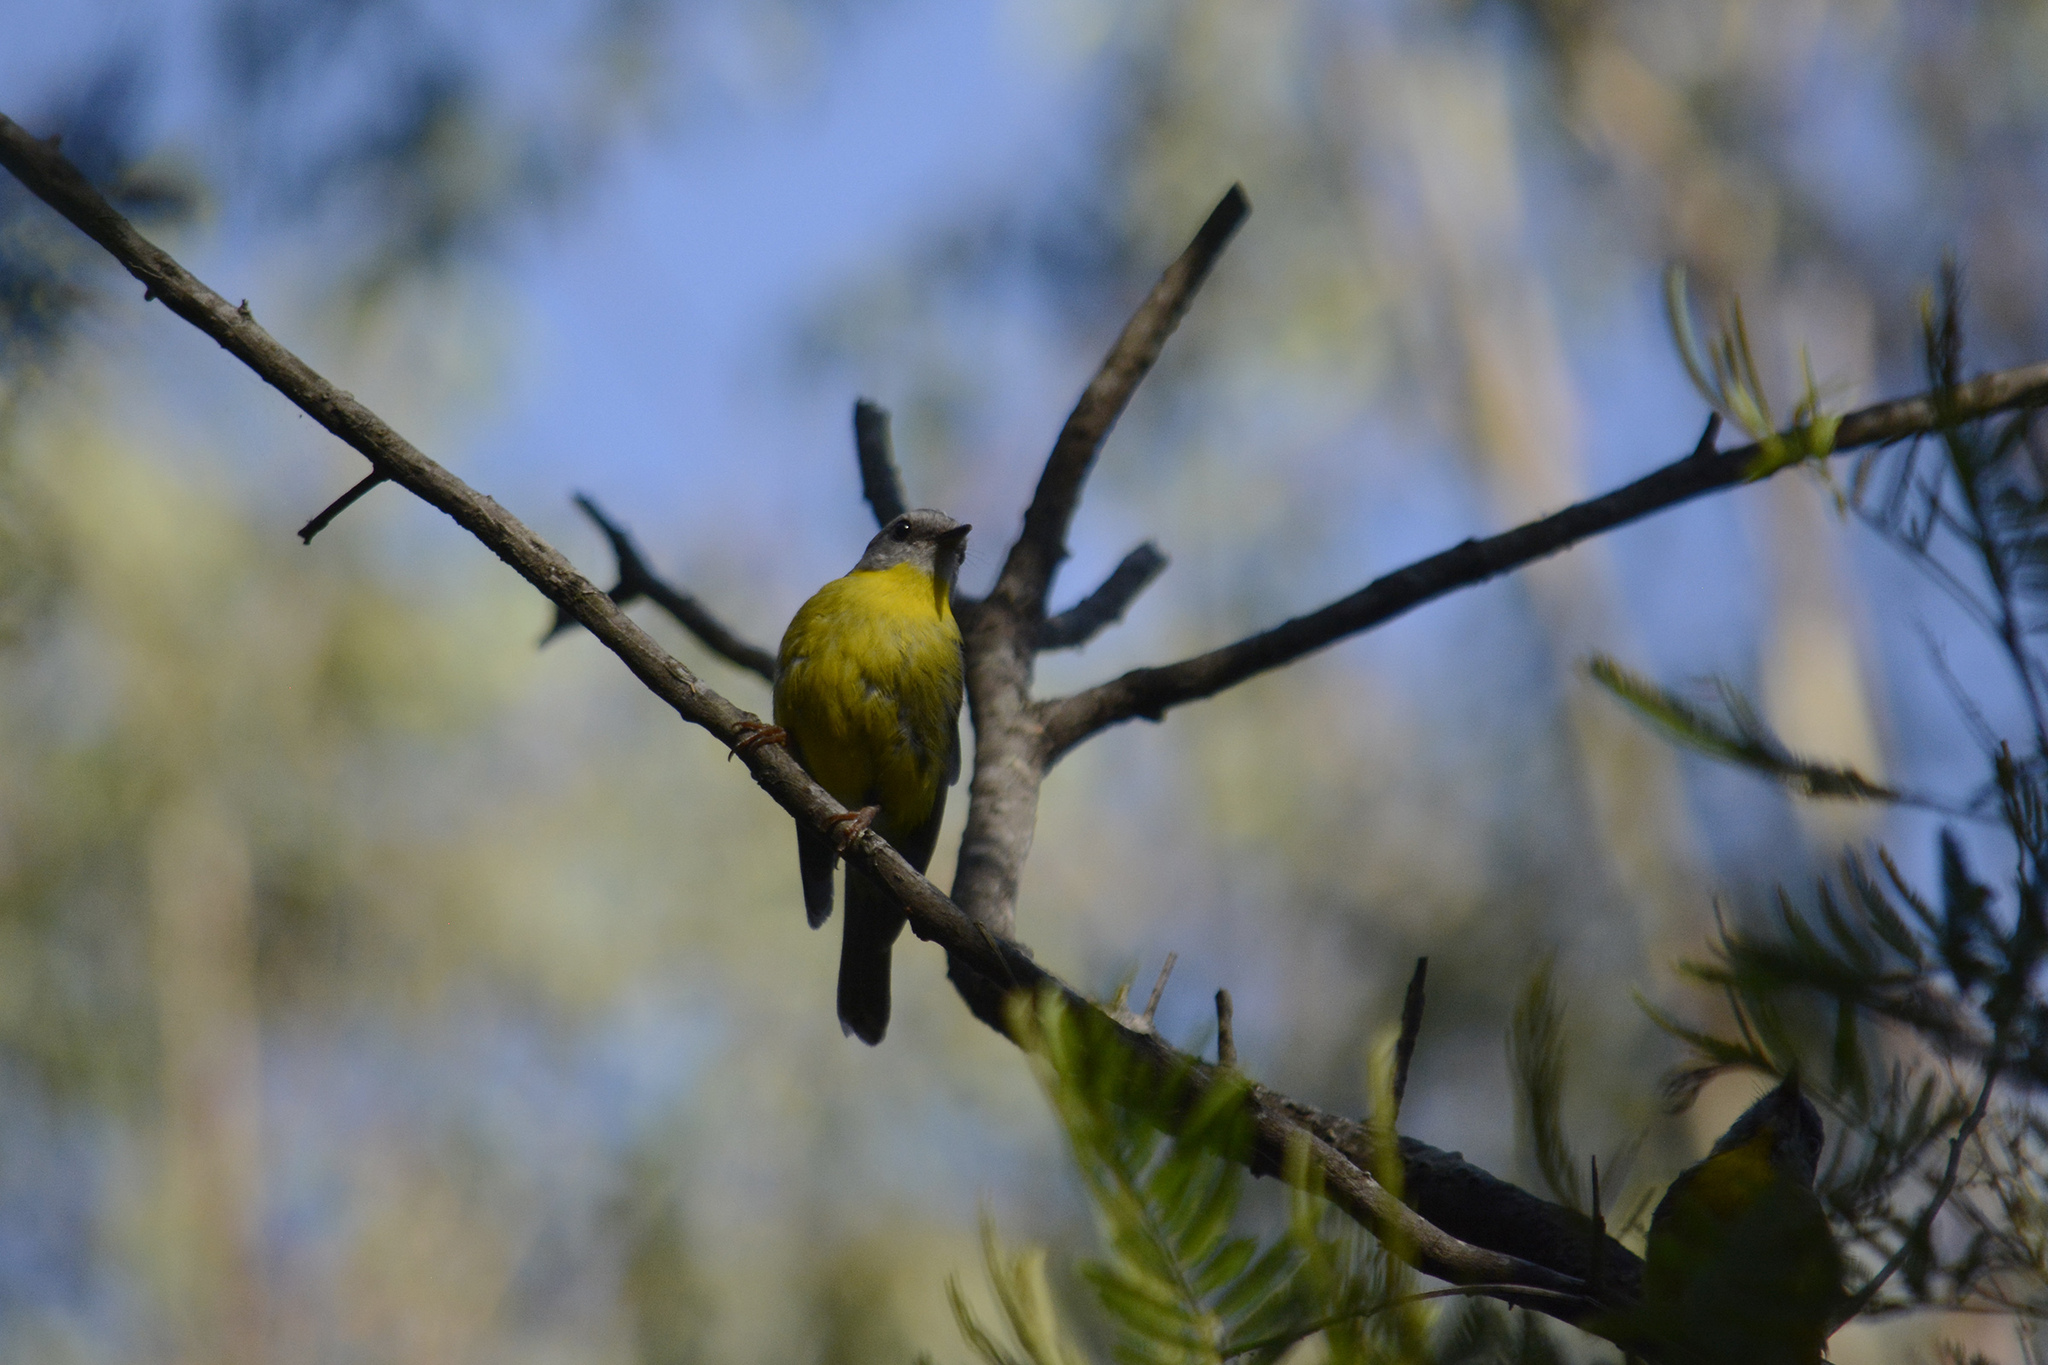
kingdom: Animalia
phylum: Chordata
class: Aves
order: Passeriformes
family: Petroicidae
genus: Eopsaltria
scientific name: Eopsaltria australis
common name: Eastern yellow robin
